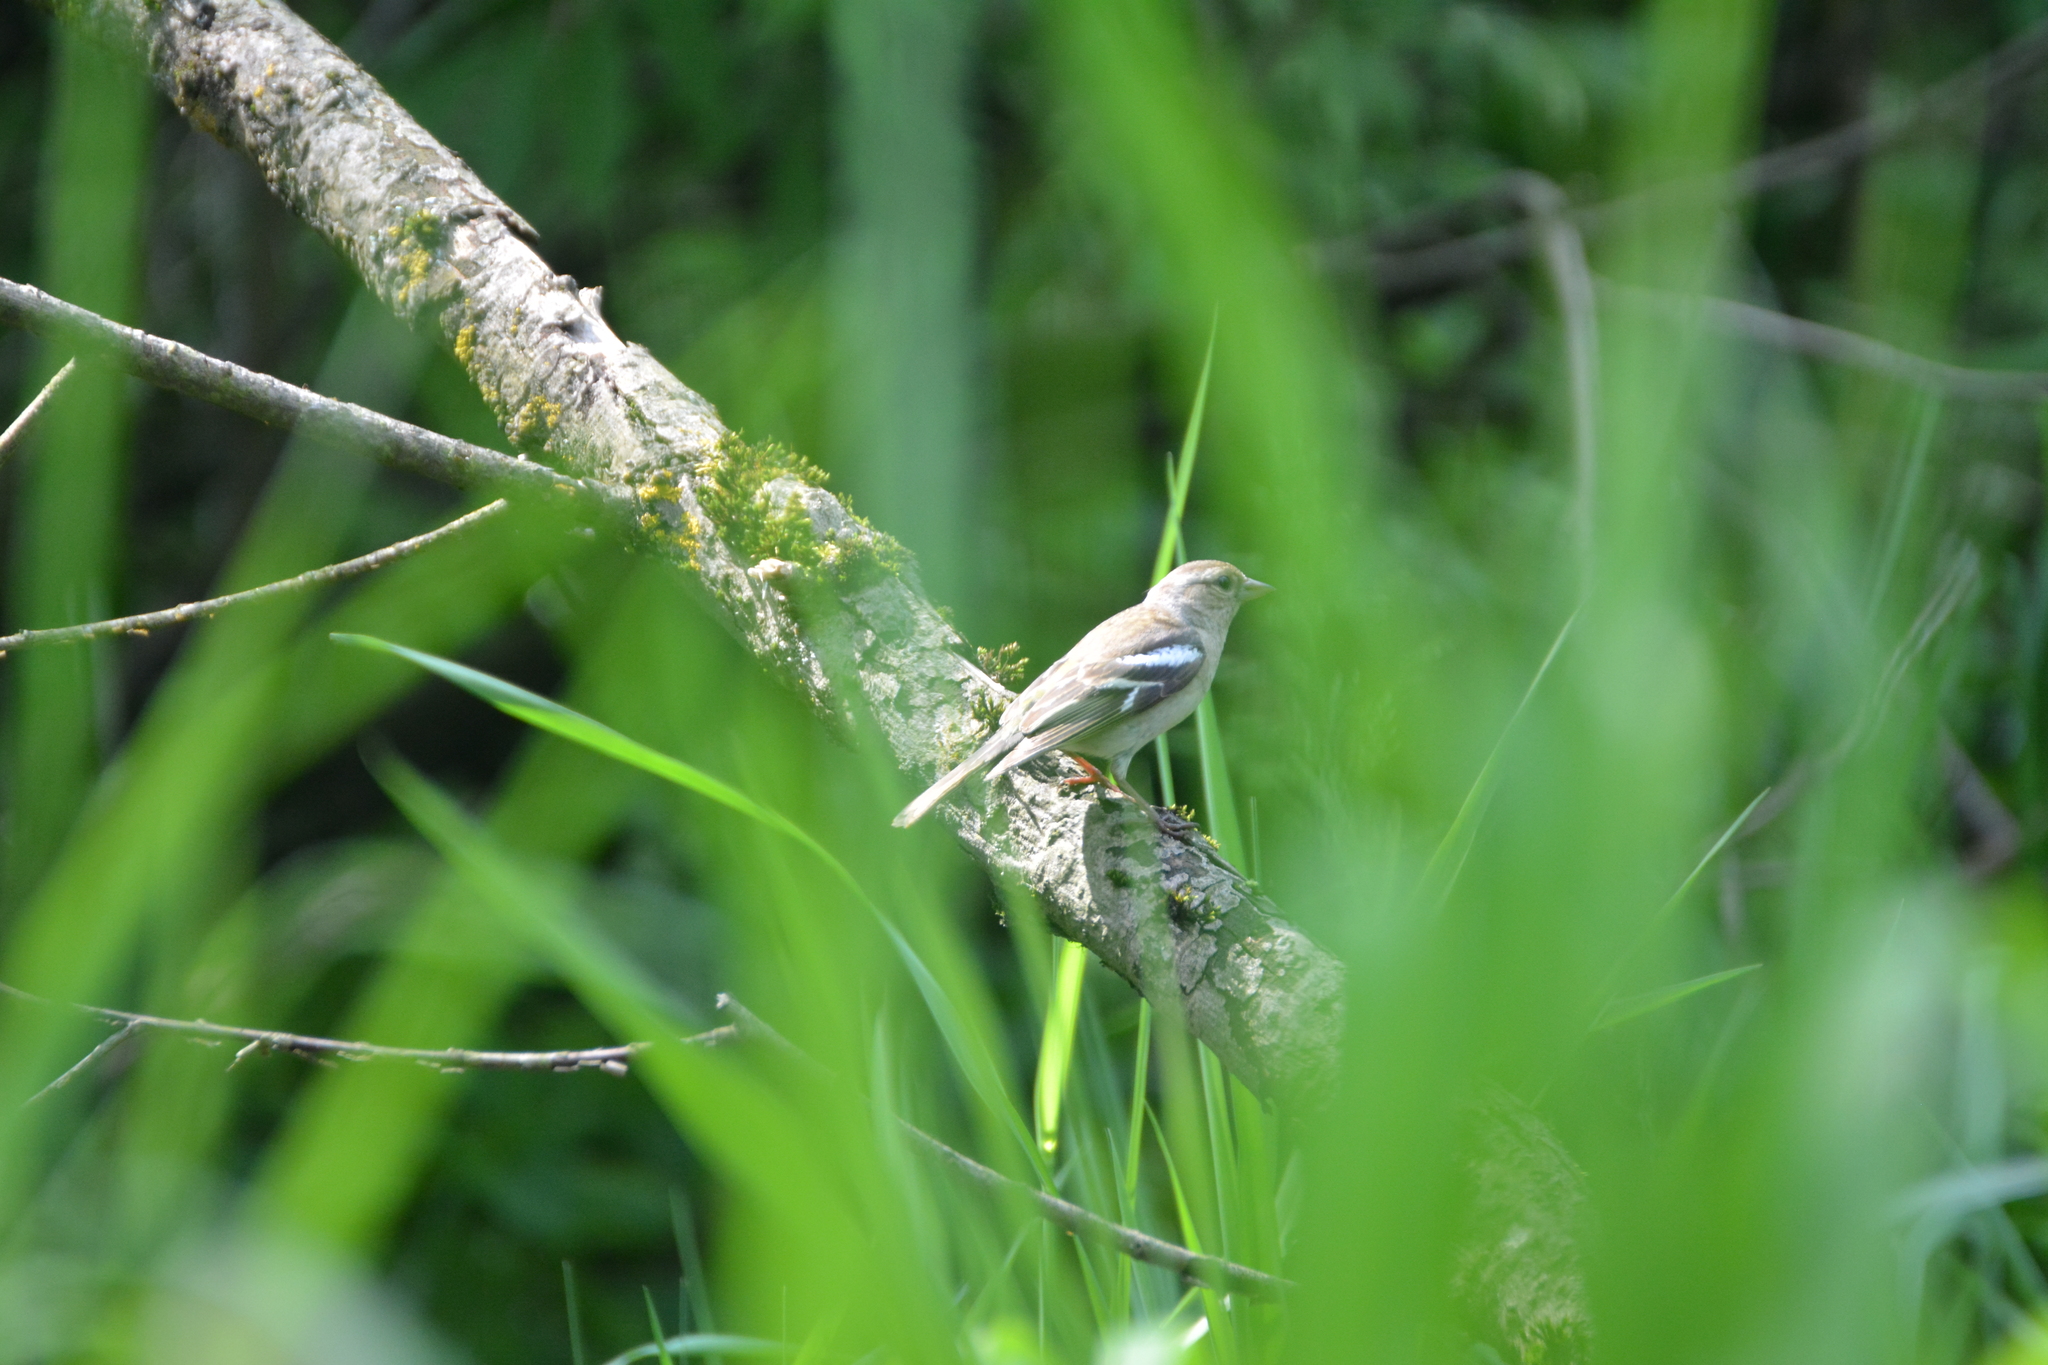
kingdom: Animalia
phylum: Chordata
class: Aves
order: Passeriformes
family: Fringillidae
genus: Fringilla
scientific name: Fringilla coelebs
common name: Common chaffinch
